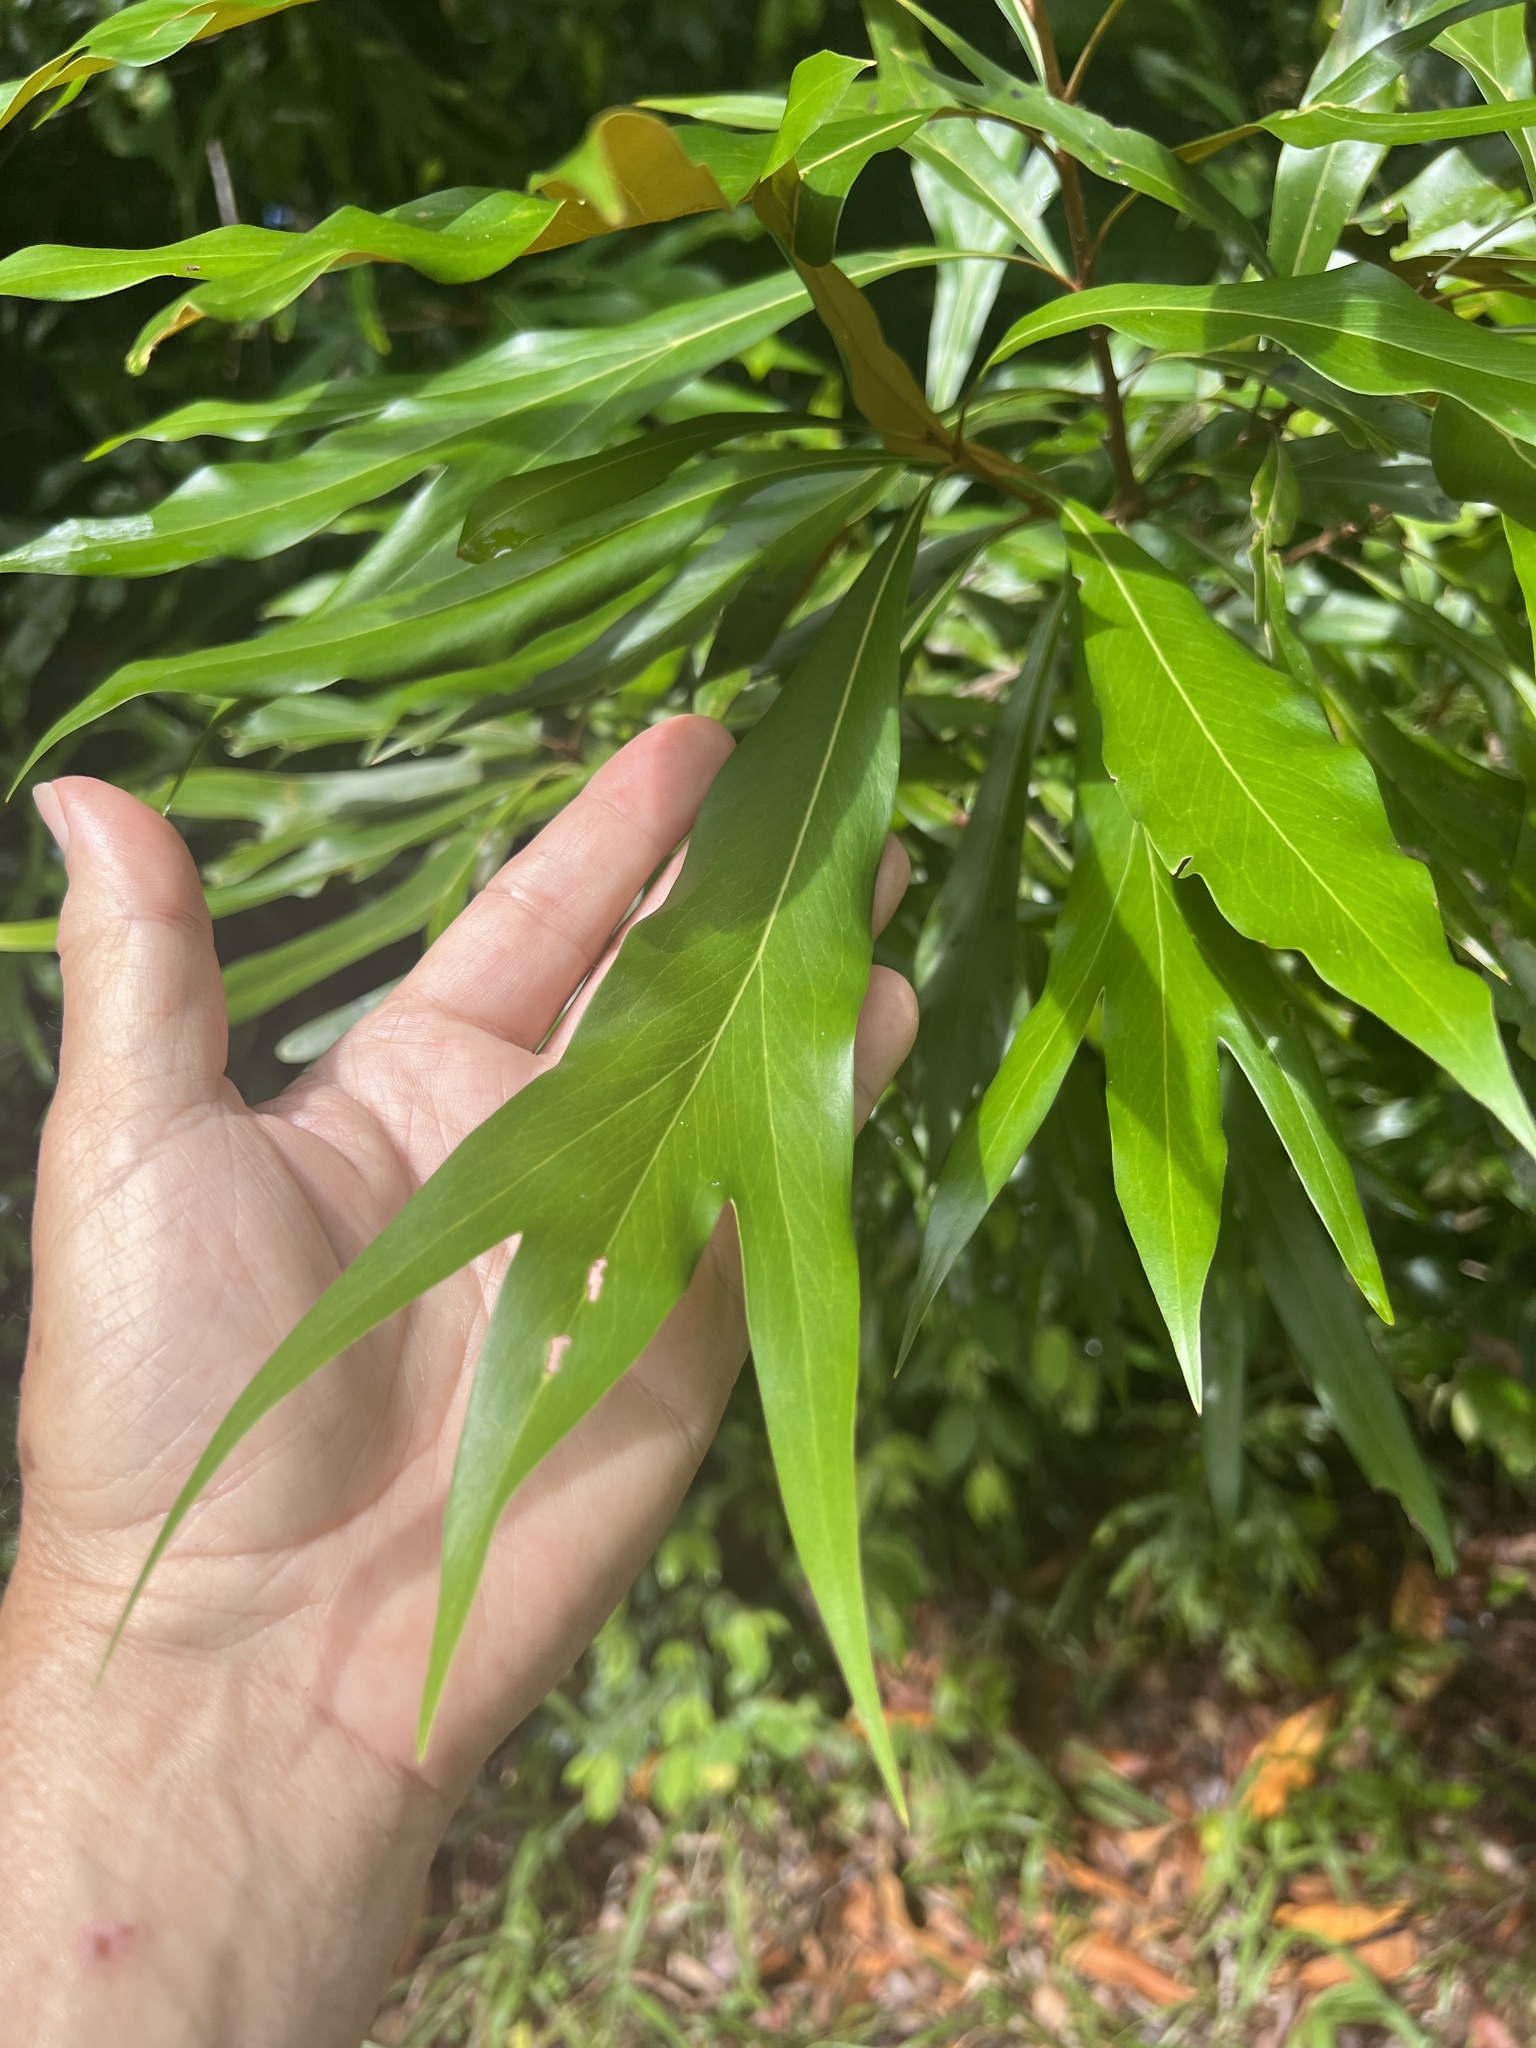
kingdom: Plantae
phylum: Tracheophyta
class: Magnoliopsida
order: Proteales
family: Proteaceae
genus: Grevillea
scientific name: Grevillea baileyana
